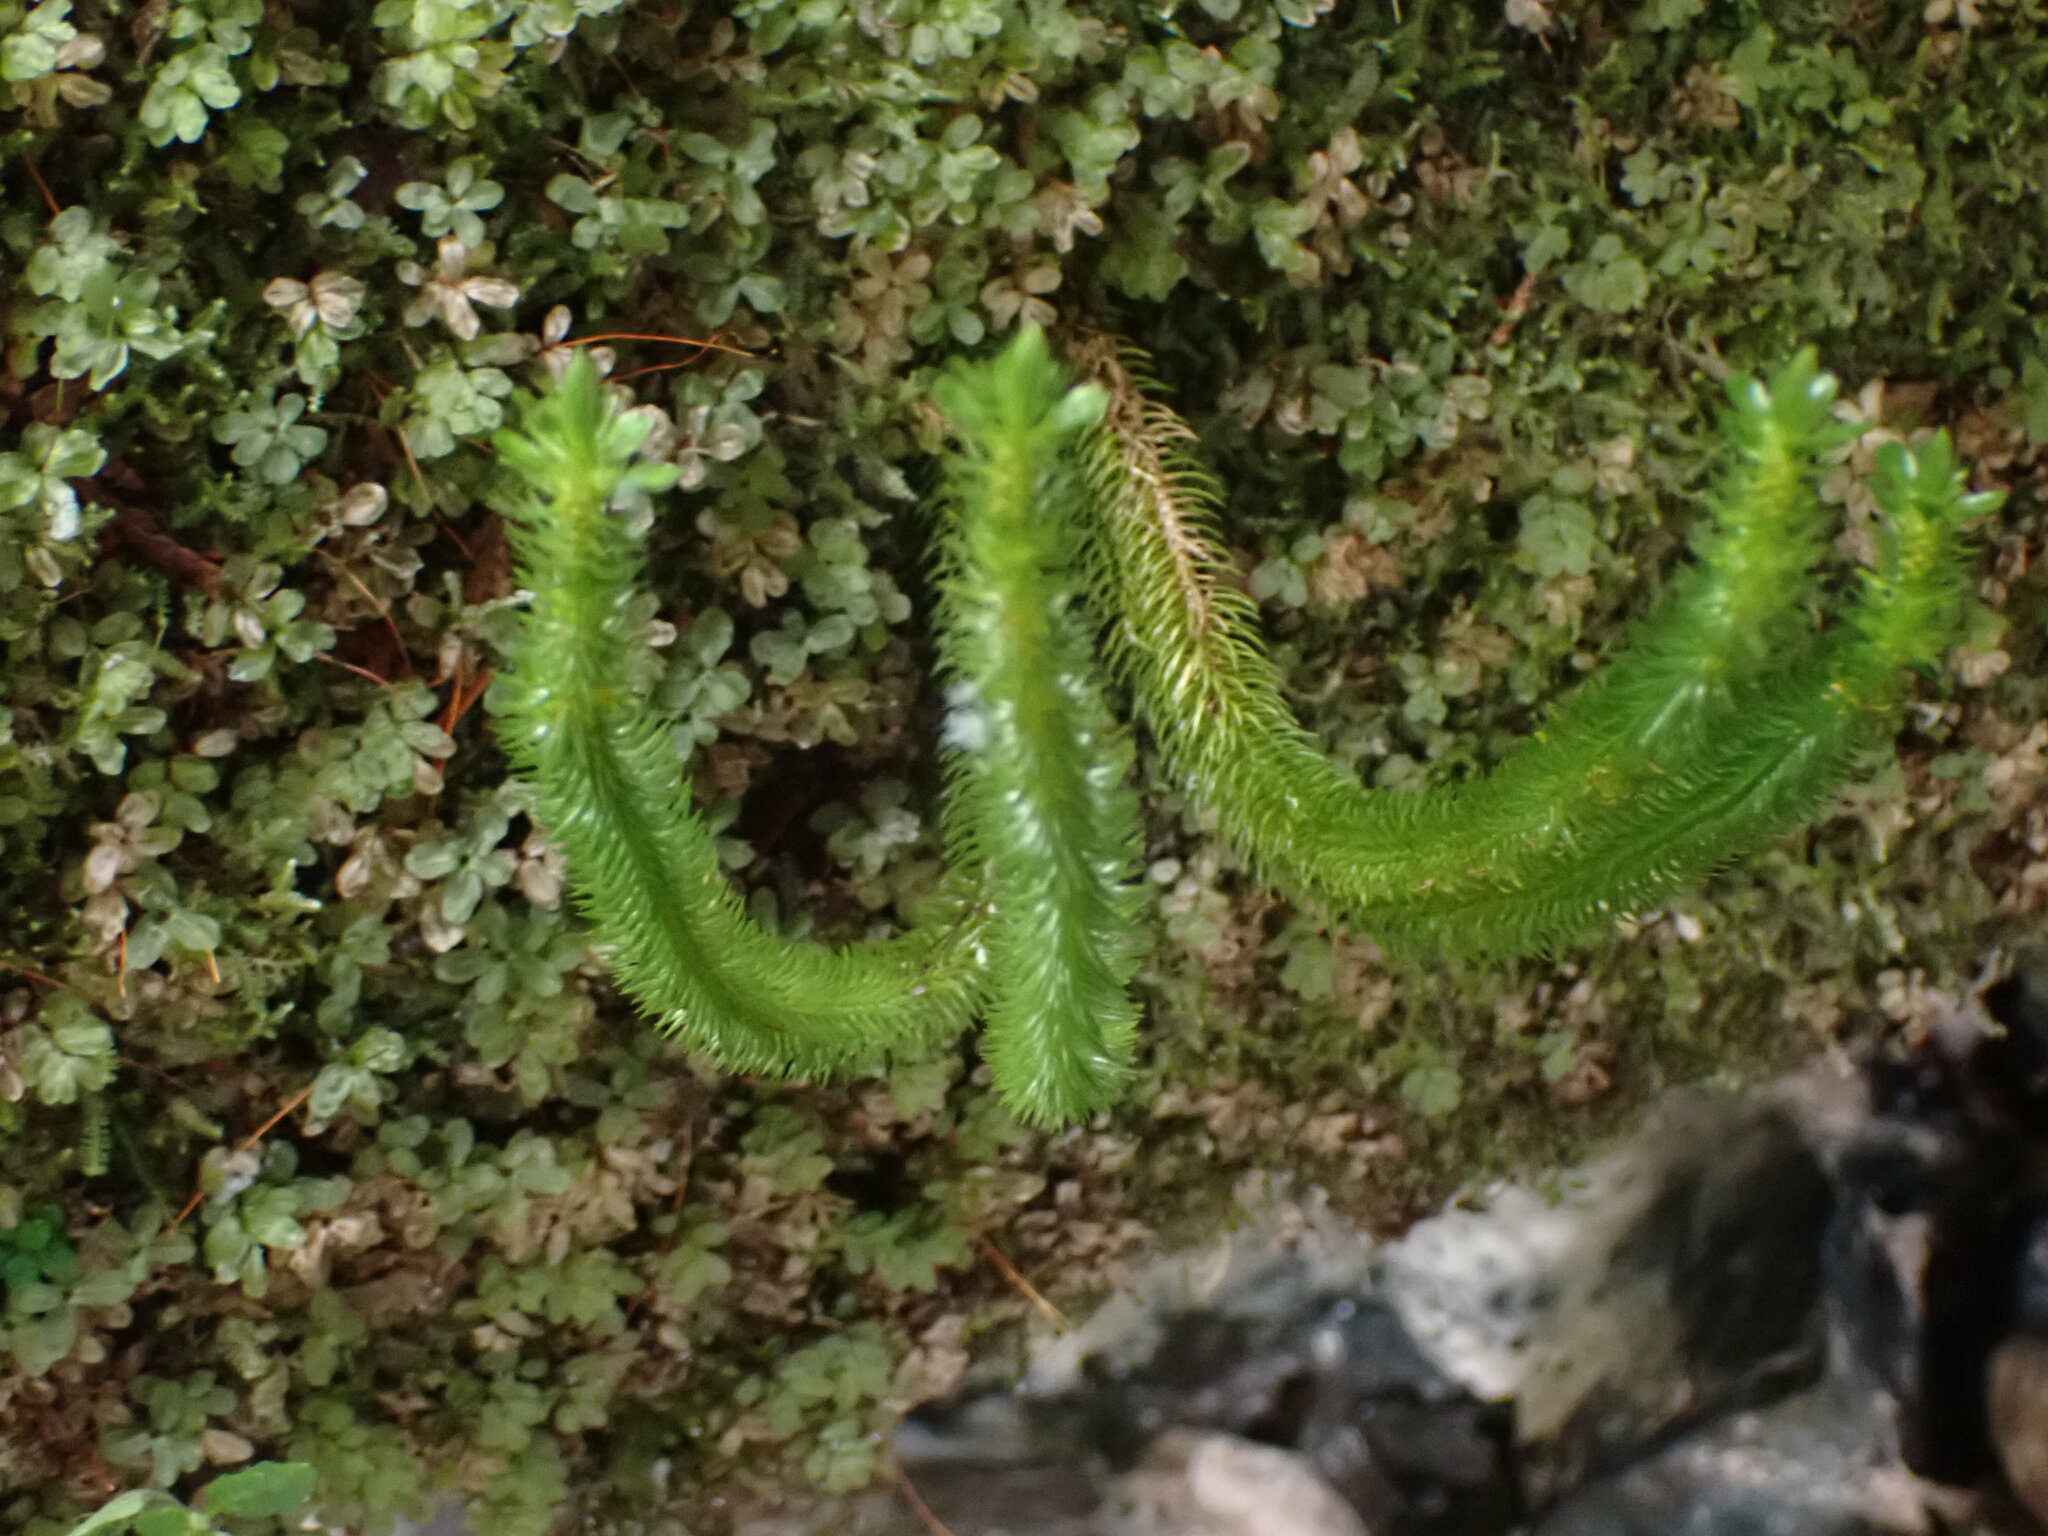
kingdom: Plantae
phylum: Tracheophyta
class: Lycopodiopsida
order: Lycopodiales
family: Lycopodiaceae
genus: Huperzia
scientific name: Huperzia miyoshiana
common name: Chinese clubmoss
